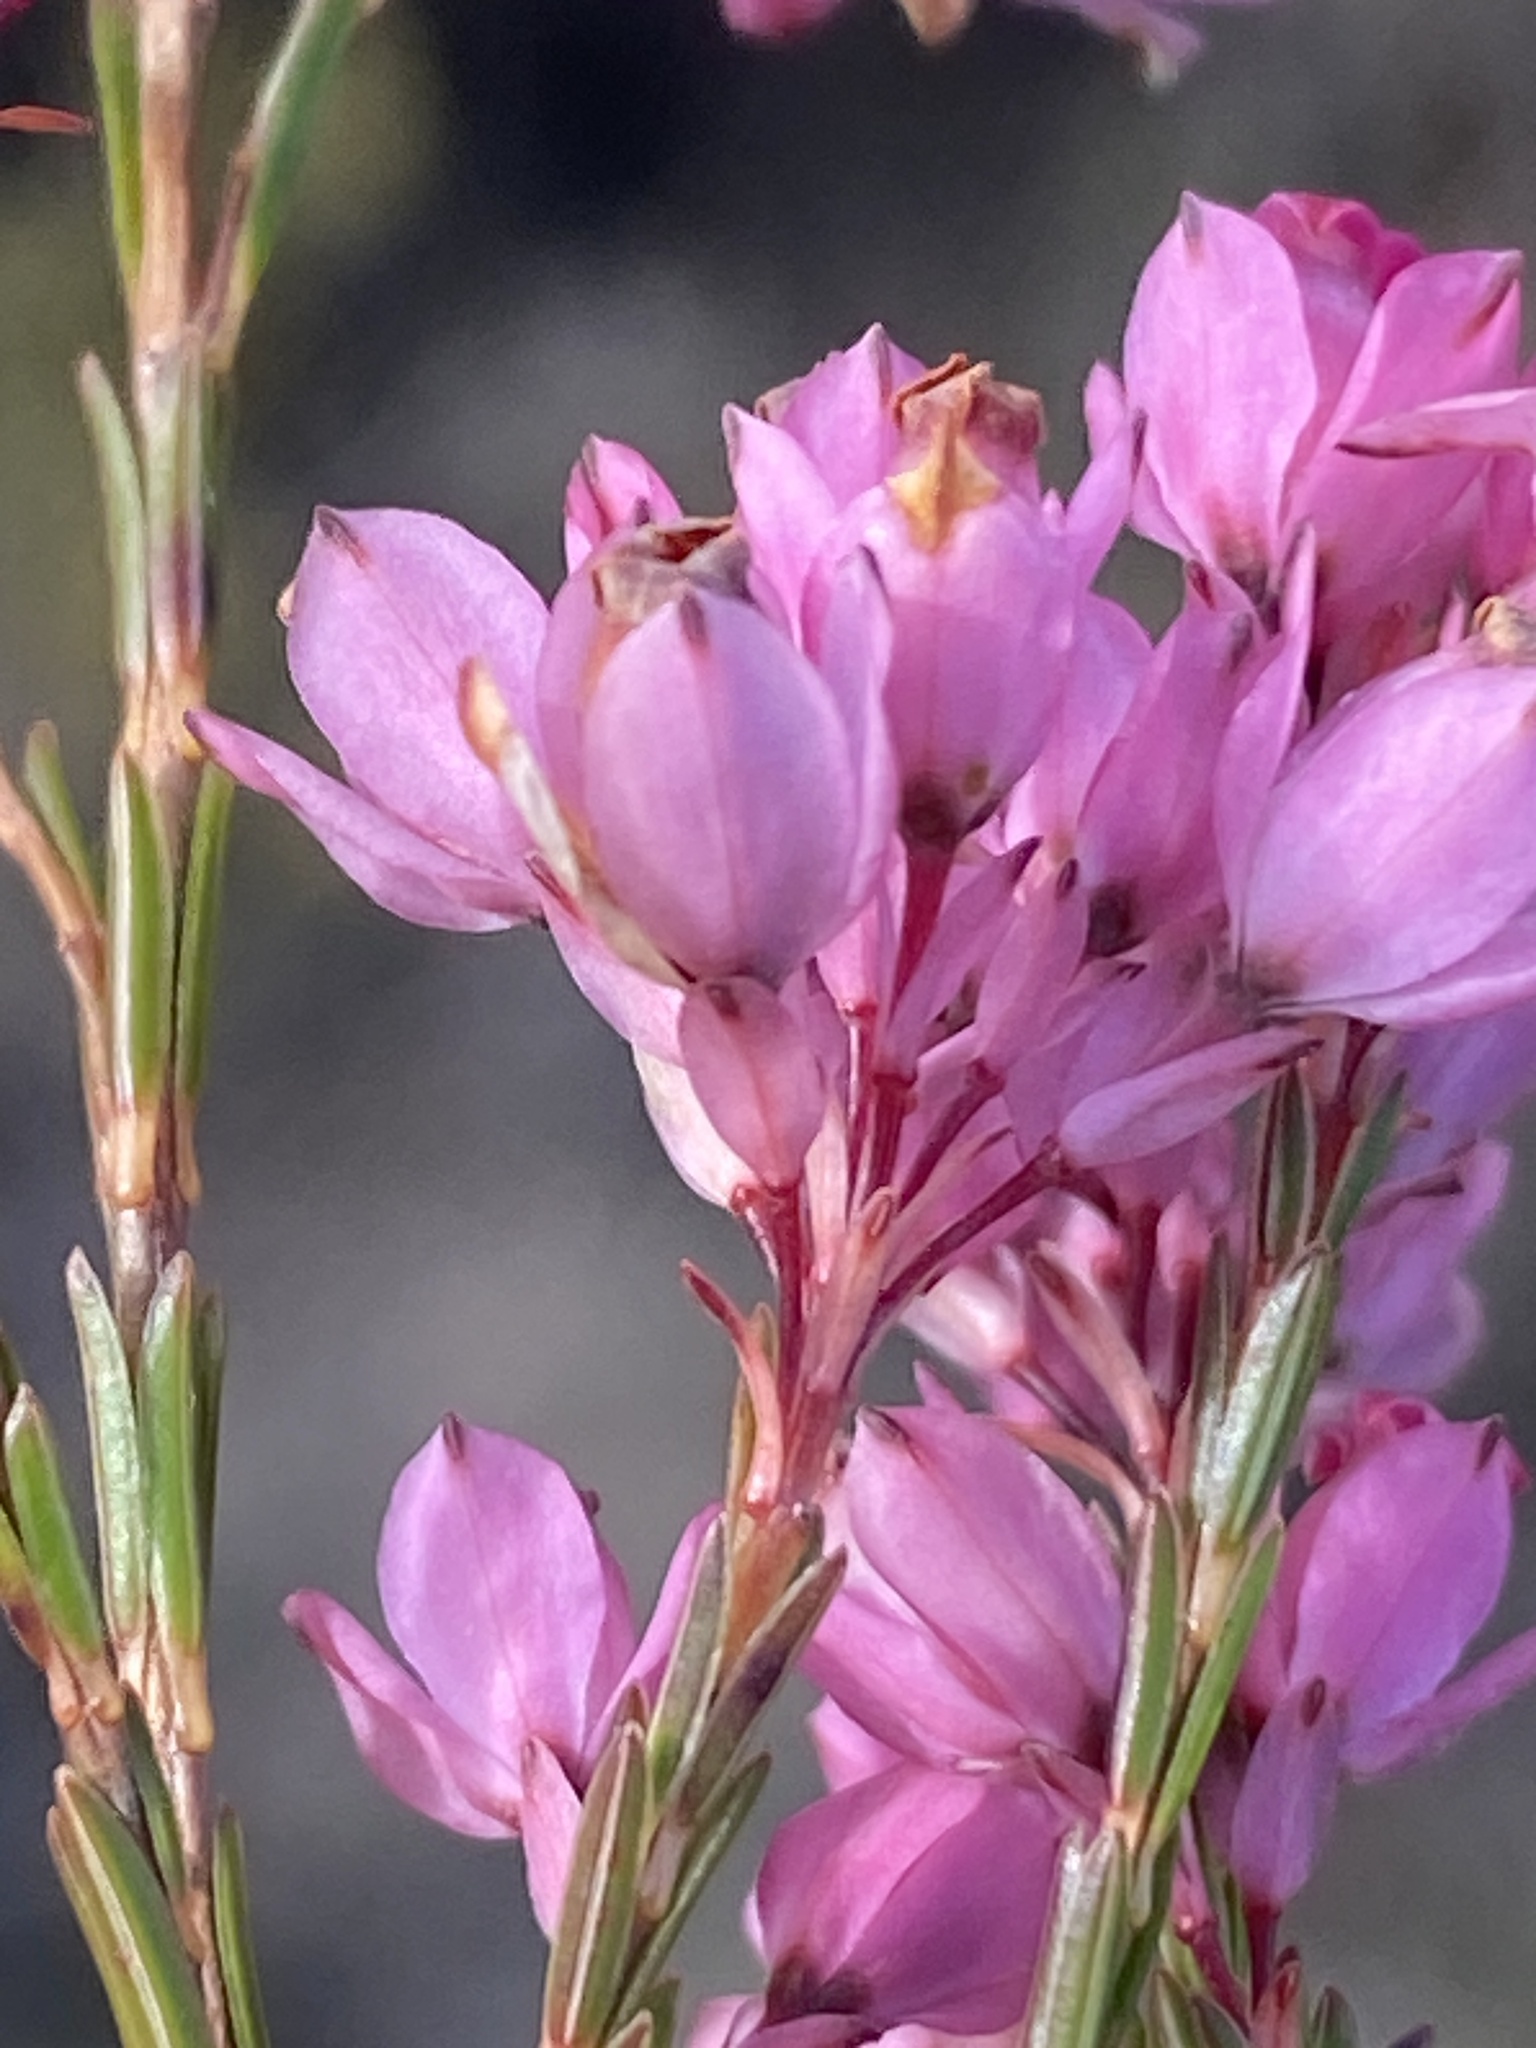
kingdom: Plantae
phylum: Tracheophyta
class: Magnoliopsida
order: Ericales
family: Ericaceae
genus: Erica
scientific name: Erica corifolia
